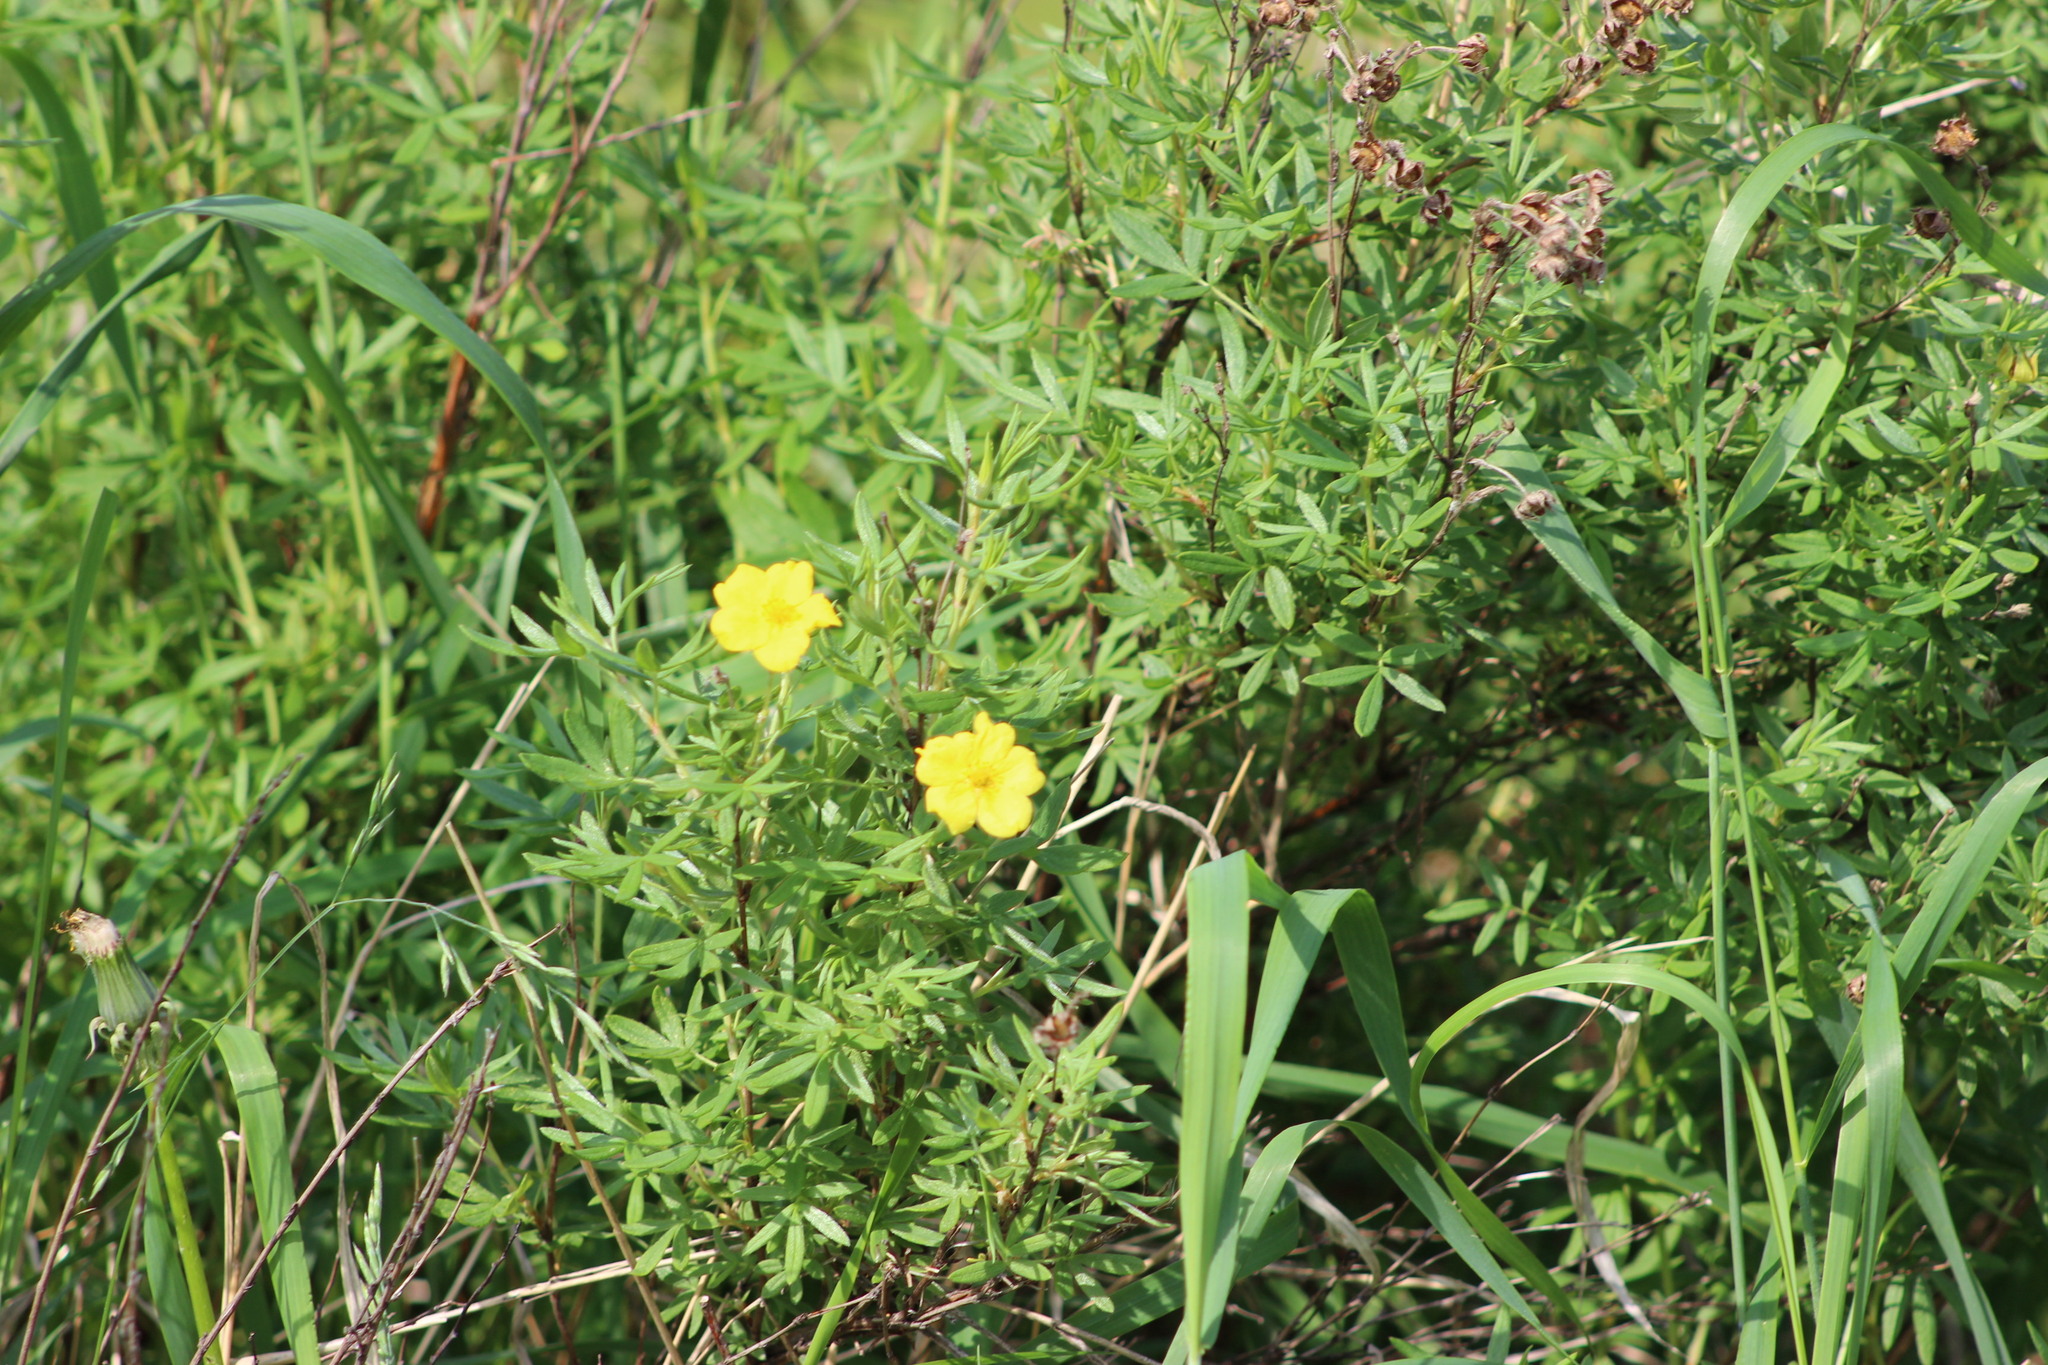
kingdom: Plantae
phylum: Tracheophyta
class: Magnoliopsida
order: Rosales
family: Rosaceae
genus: Dasiphora
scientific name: Dasiphora fruticosa
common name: Shrubby cinquefoil
